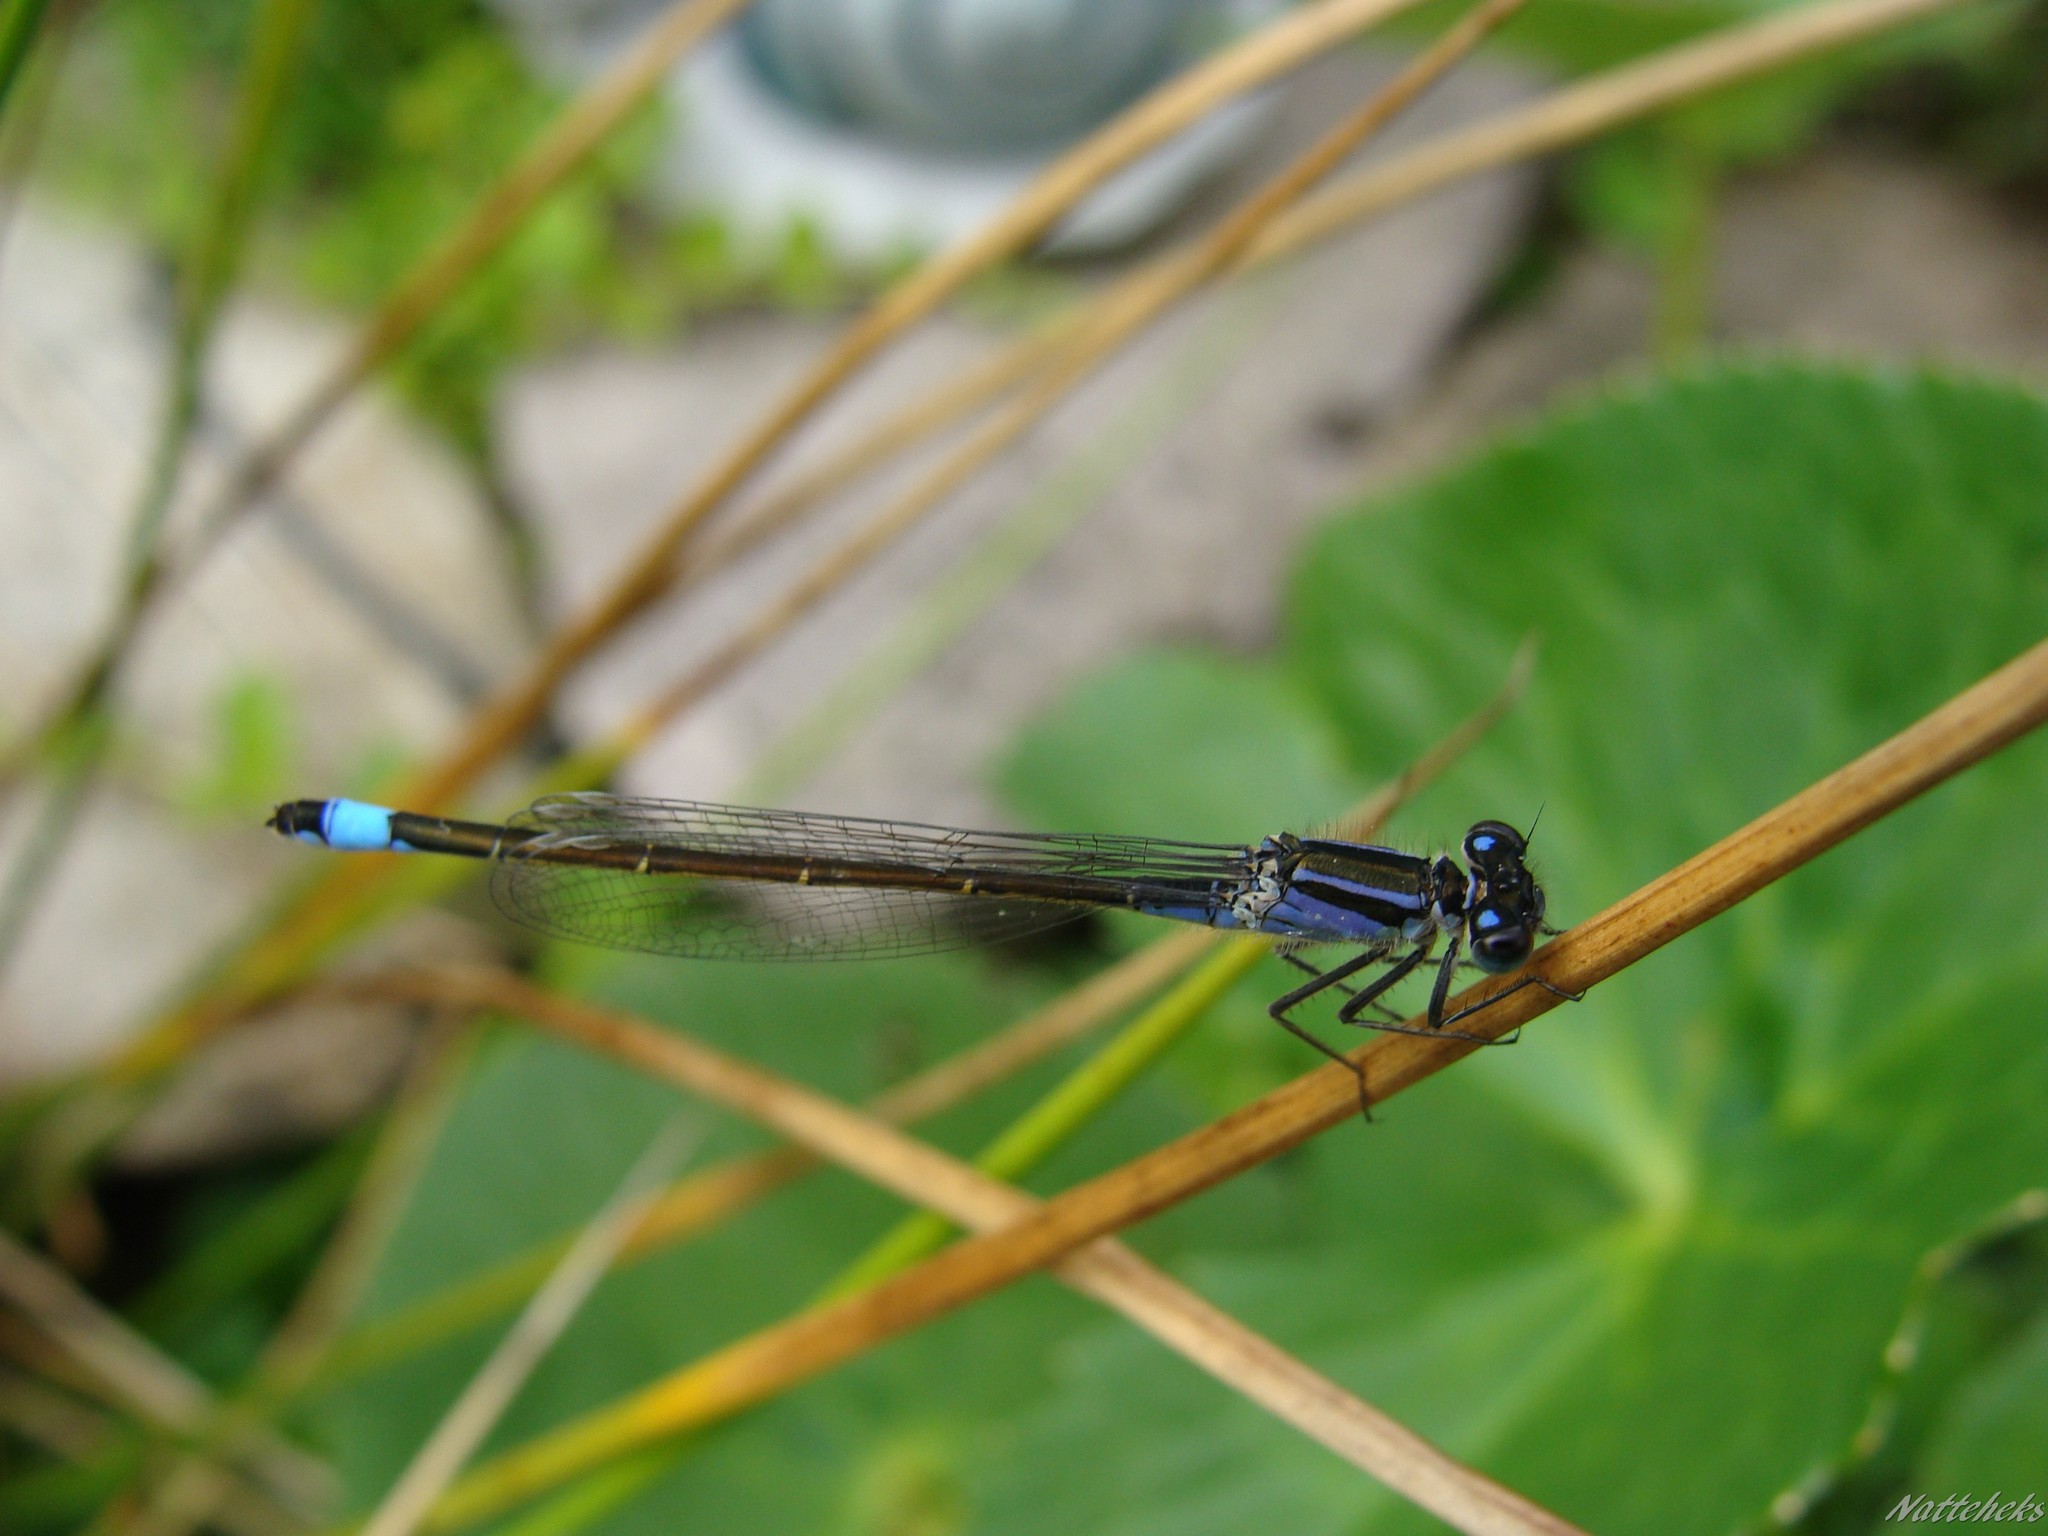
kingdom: Animalia
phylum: Arthropoda
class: Insecta
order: Odonata
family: Coenagrionidae
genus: Ischnura
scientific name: Ischnura elegans
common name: Blue-tailed damselfly
